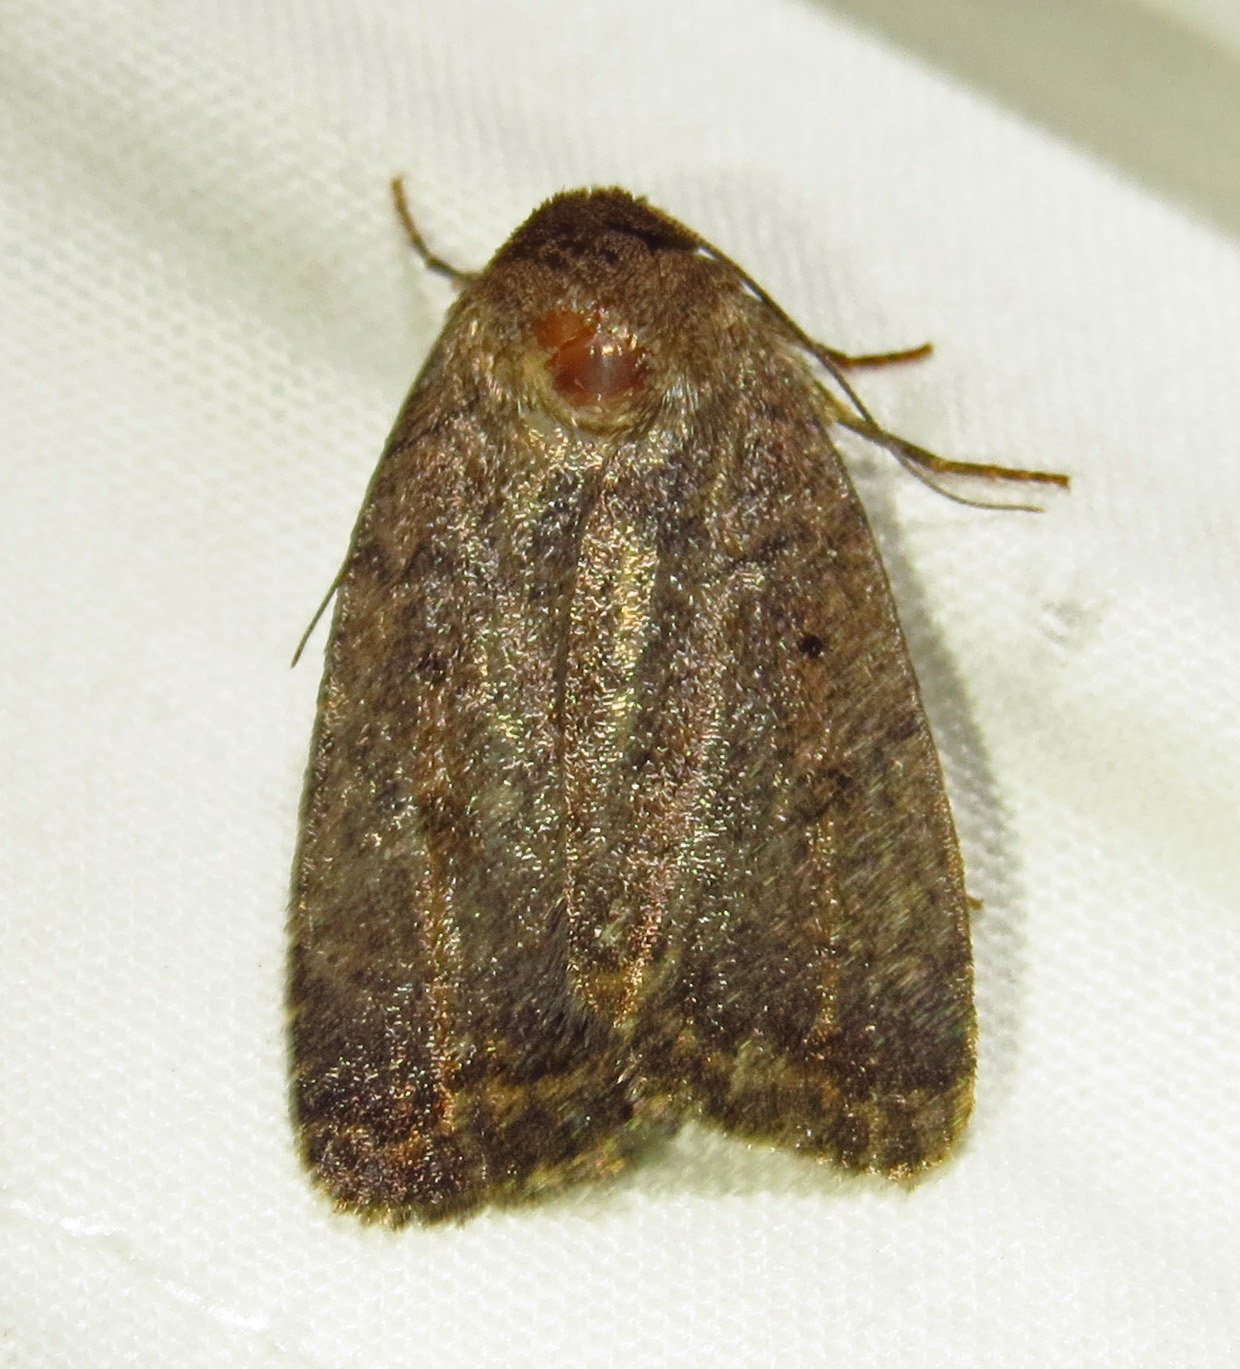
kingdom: Animalia
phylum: Arthropoda
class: Insecta
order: Lepidoptera
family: Noctuidae
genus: Athetis
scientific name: Athetis tarda
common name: Slowpoke moth
